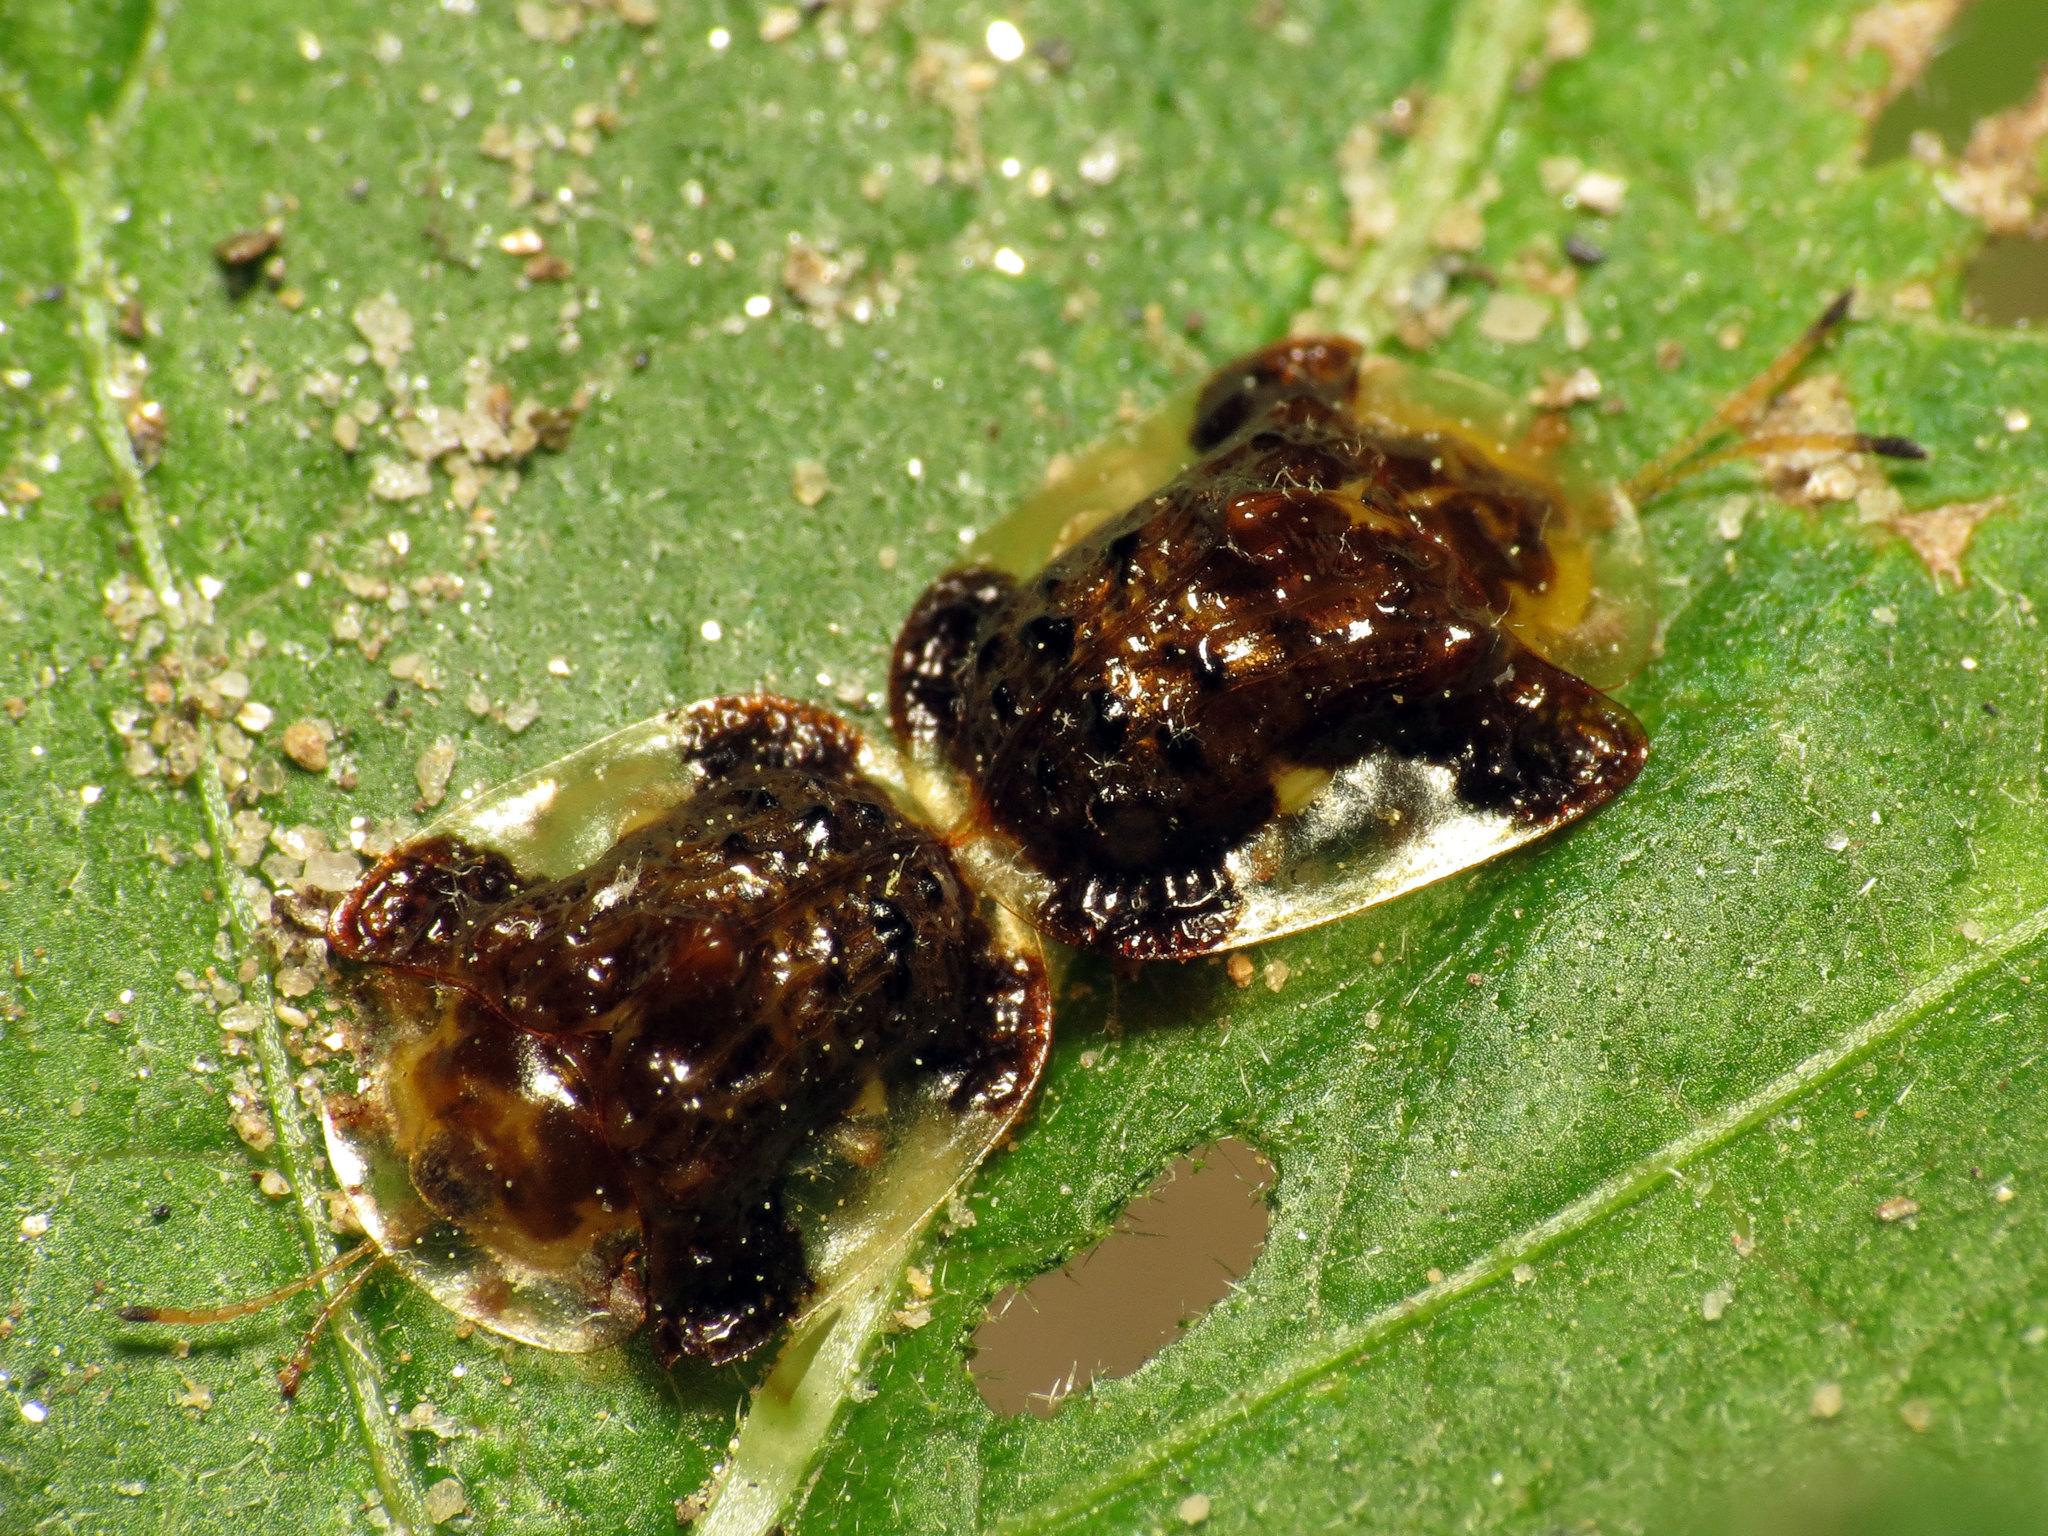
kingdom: Animalia
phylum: Arthropoda
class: Insecta
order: Coleoptera
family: Chrysomelidae
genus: Helocassis
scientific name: Helocassis clavata
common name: Clavate tortoise beetle
